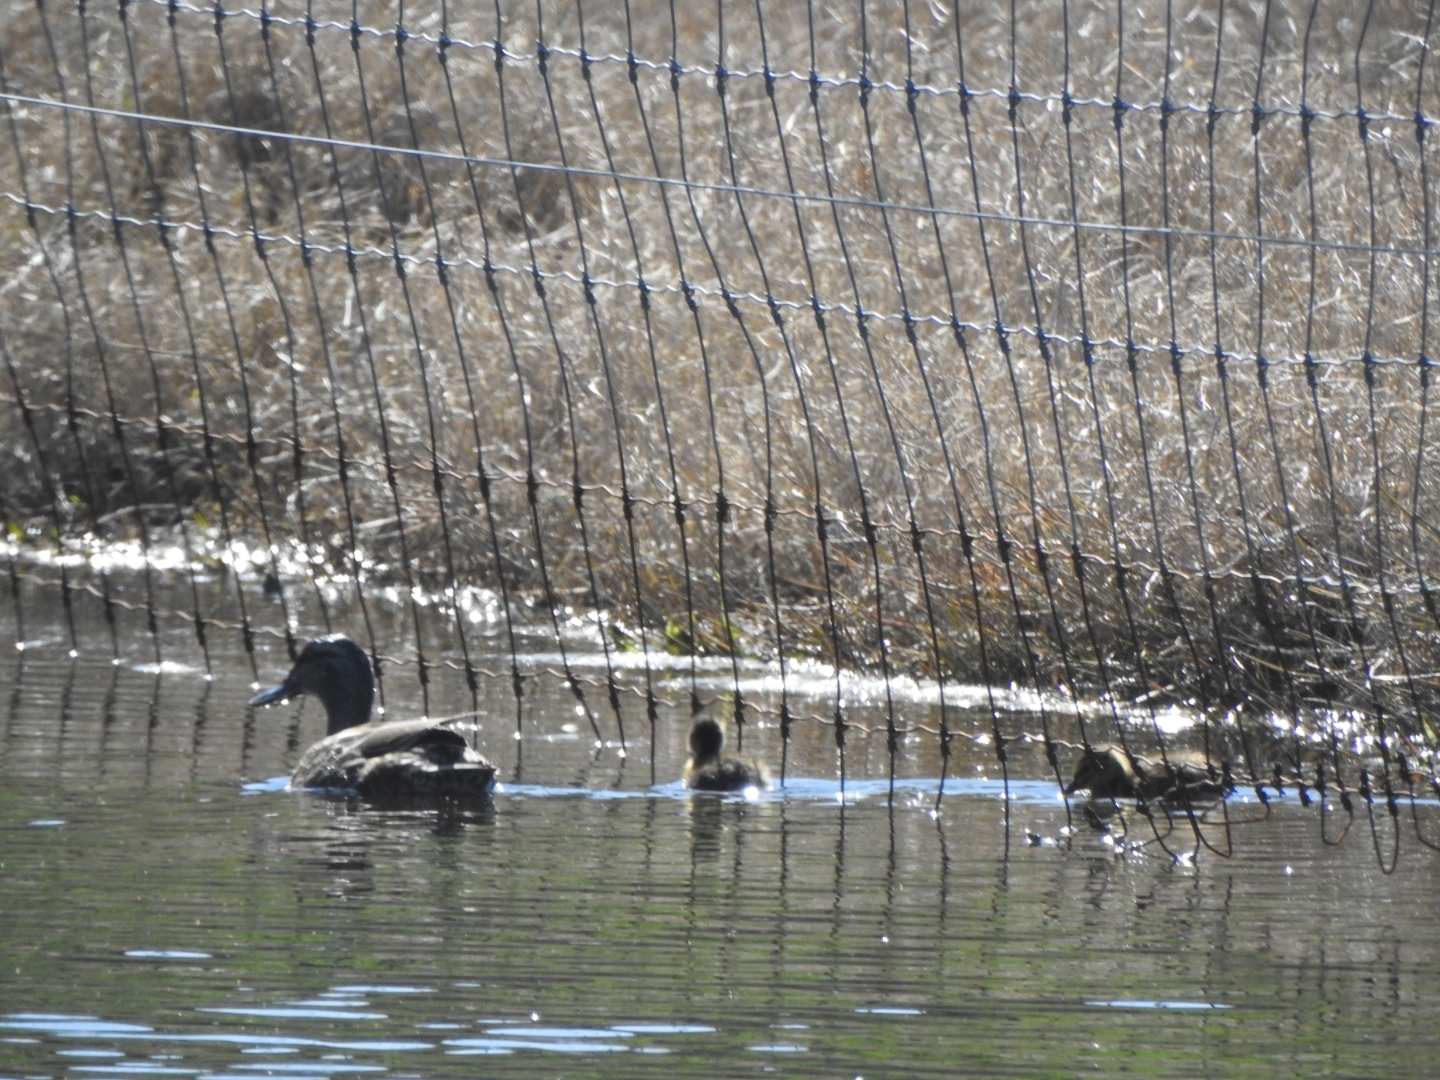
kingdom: Animalia
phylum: Chordata
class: Aves
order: Anseriformes
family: Anatidae
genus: Anas
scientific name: Anas
